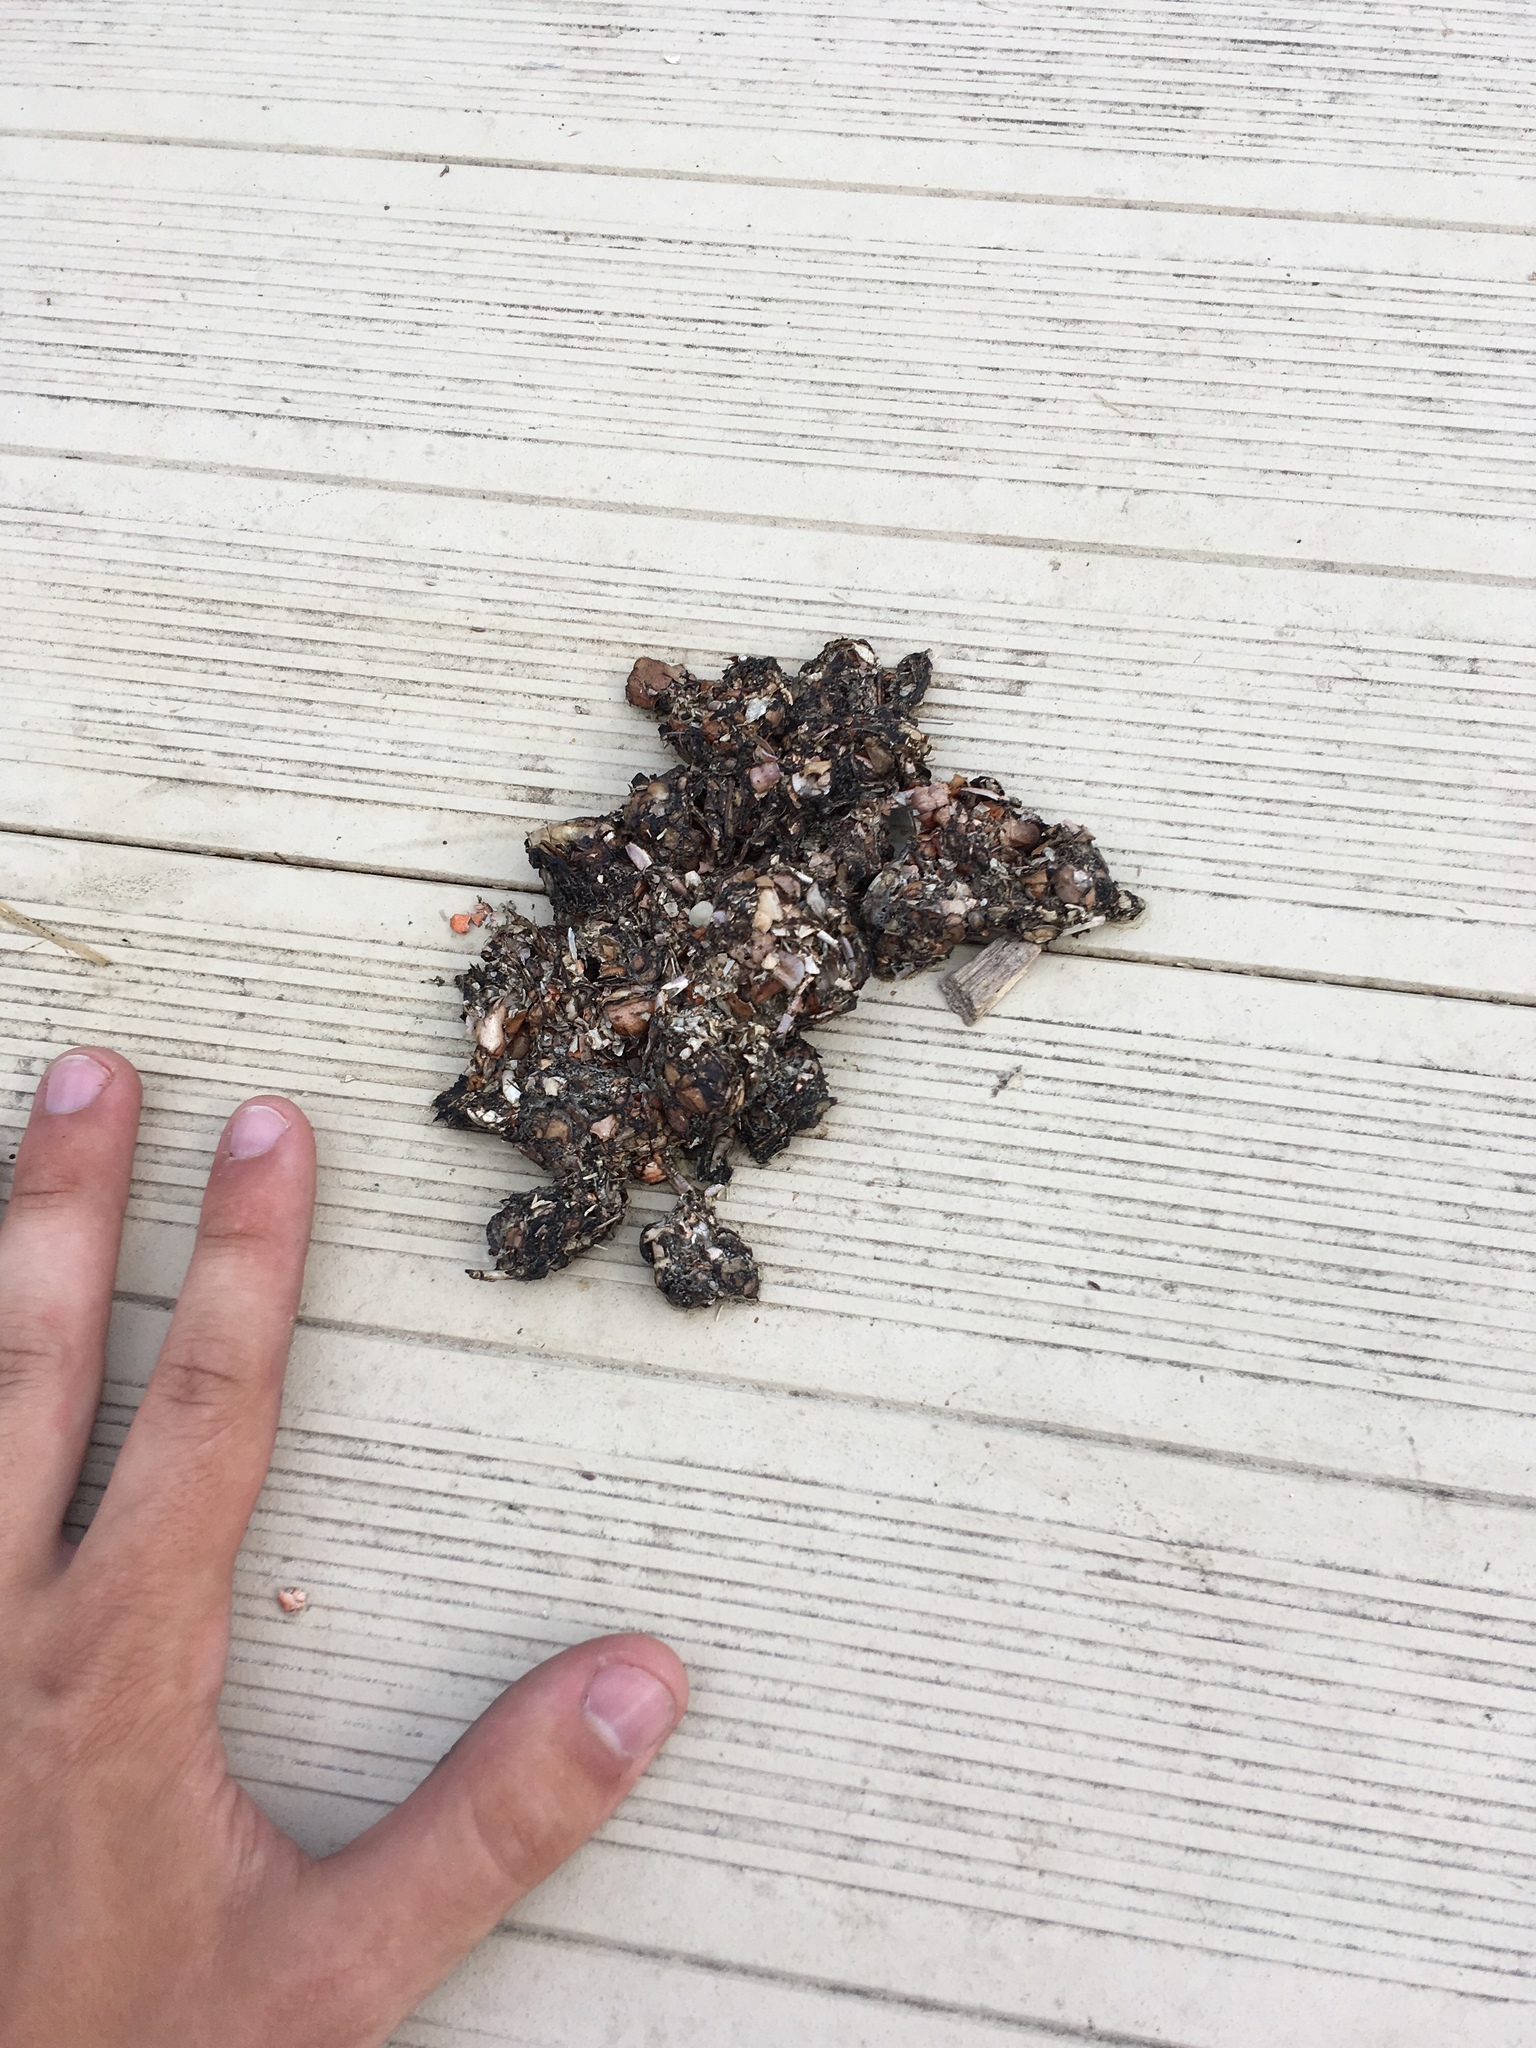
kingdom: Animalia
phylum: Chordata
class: Mammalia
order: Carnivora
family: Mustelidae
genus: Lontra
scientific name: Lontra canadensis
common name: North american river otter
